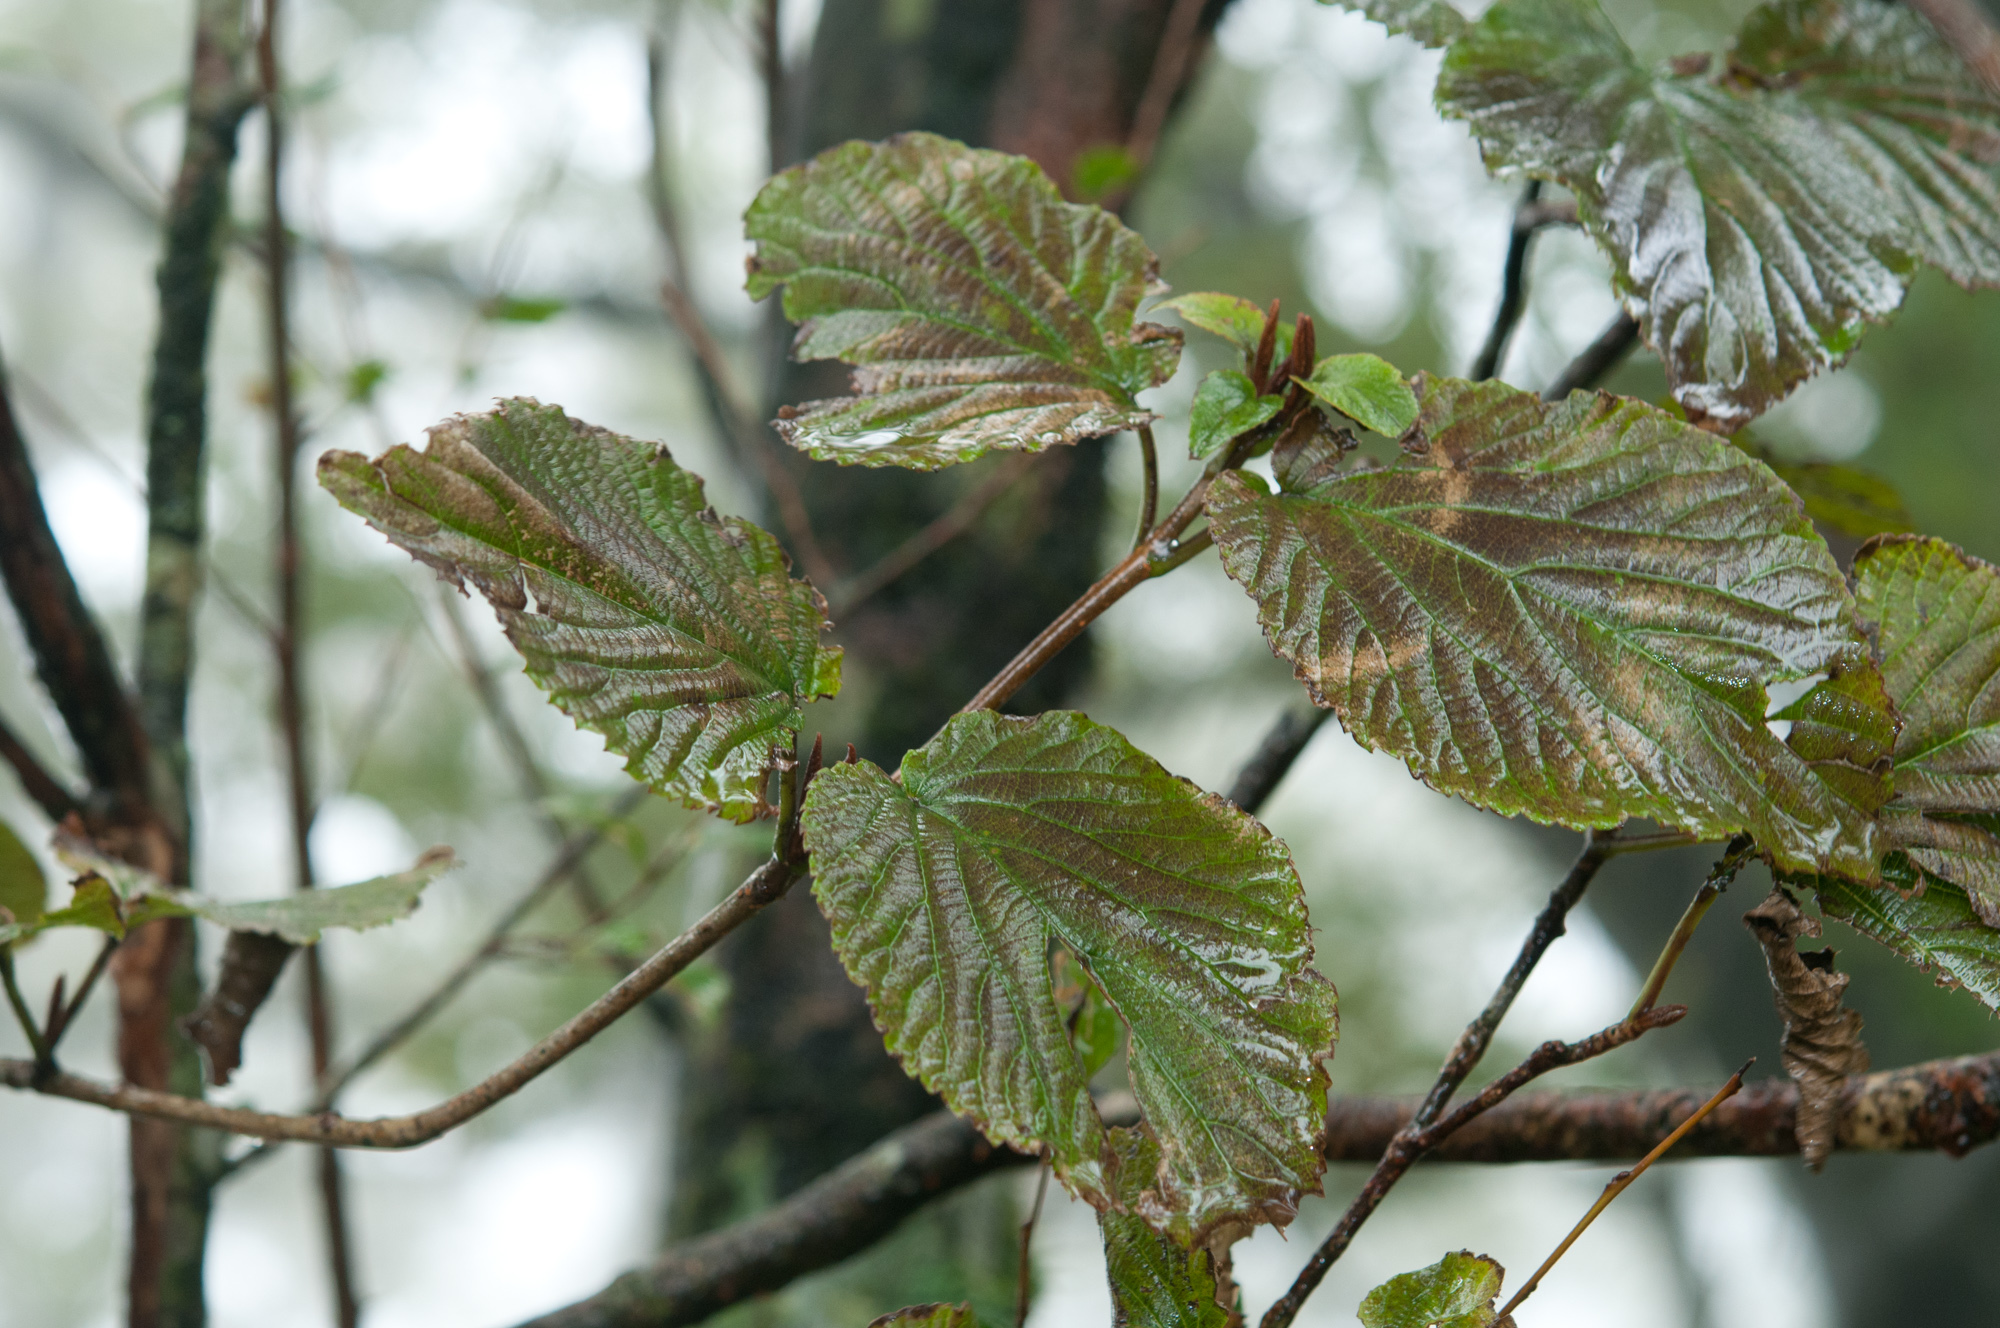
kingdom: Plantae
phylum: Tracheophyta
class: Magnoliopsida
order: Dipsacales
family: Viburnaceae
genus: Viburnum
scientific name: Viburnum furcatum
